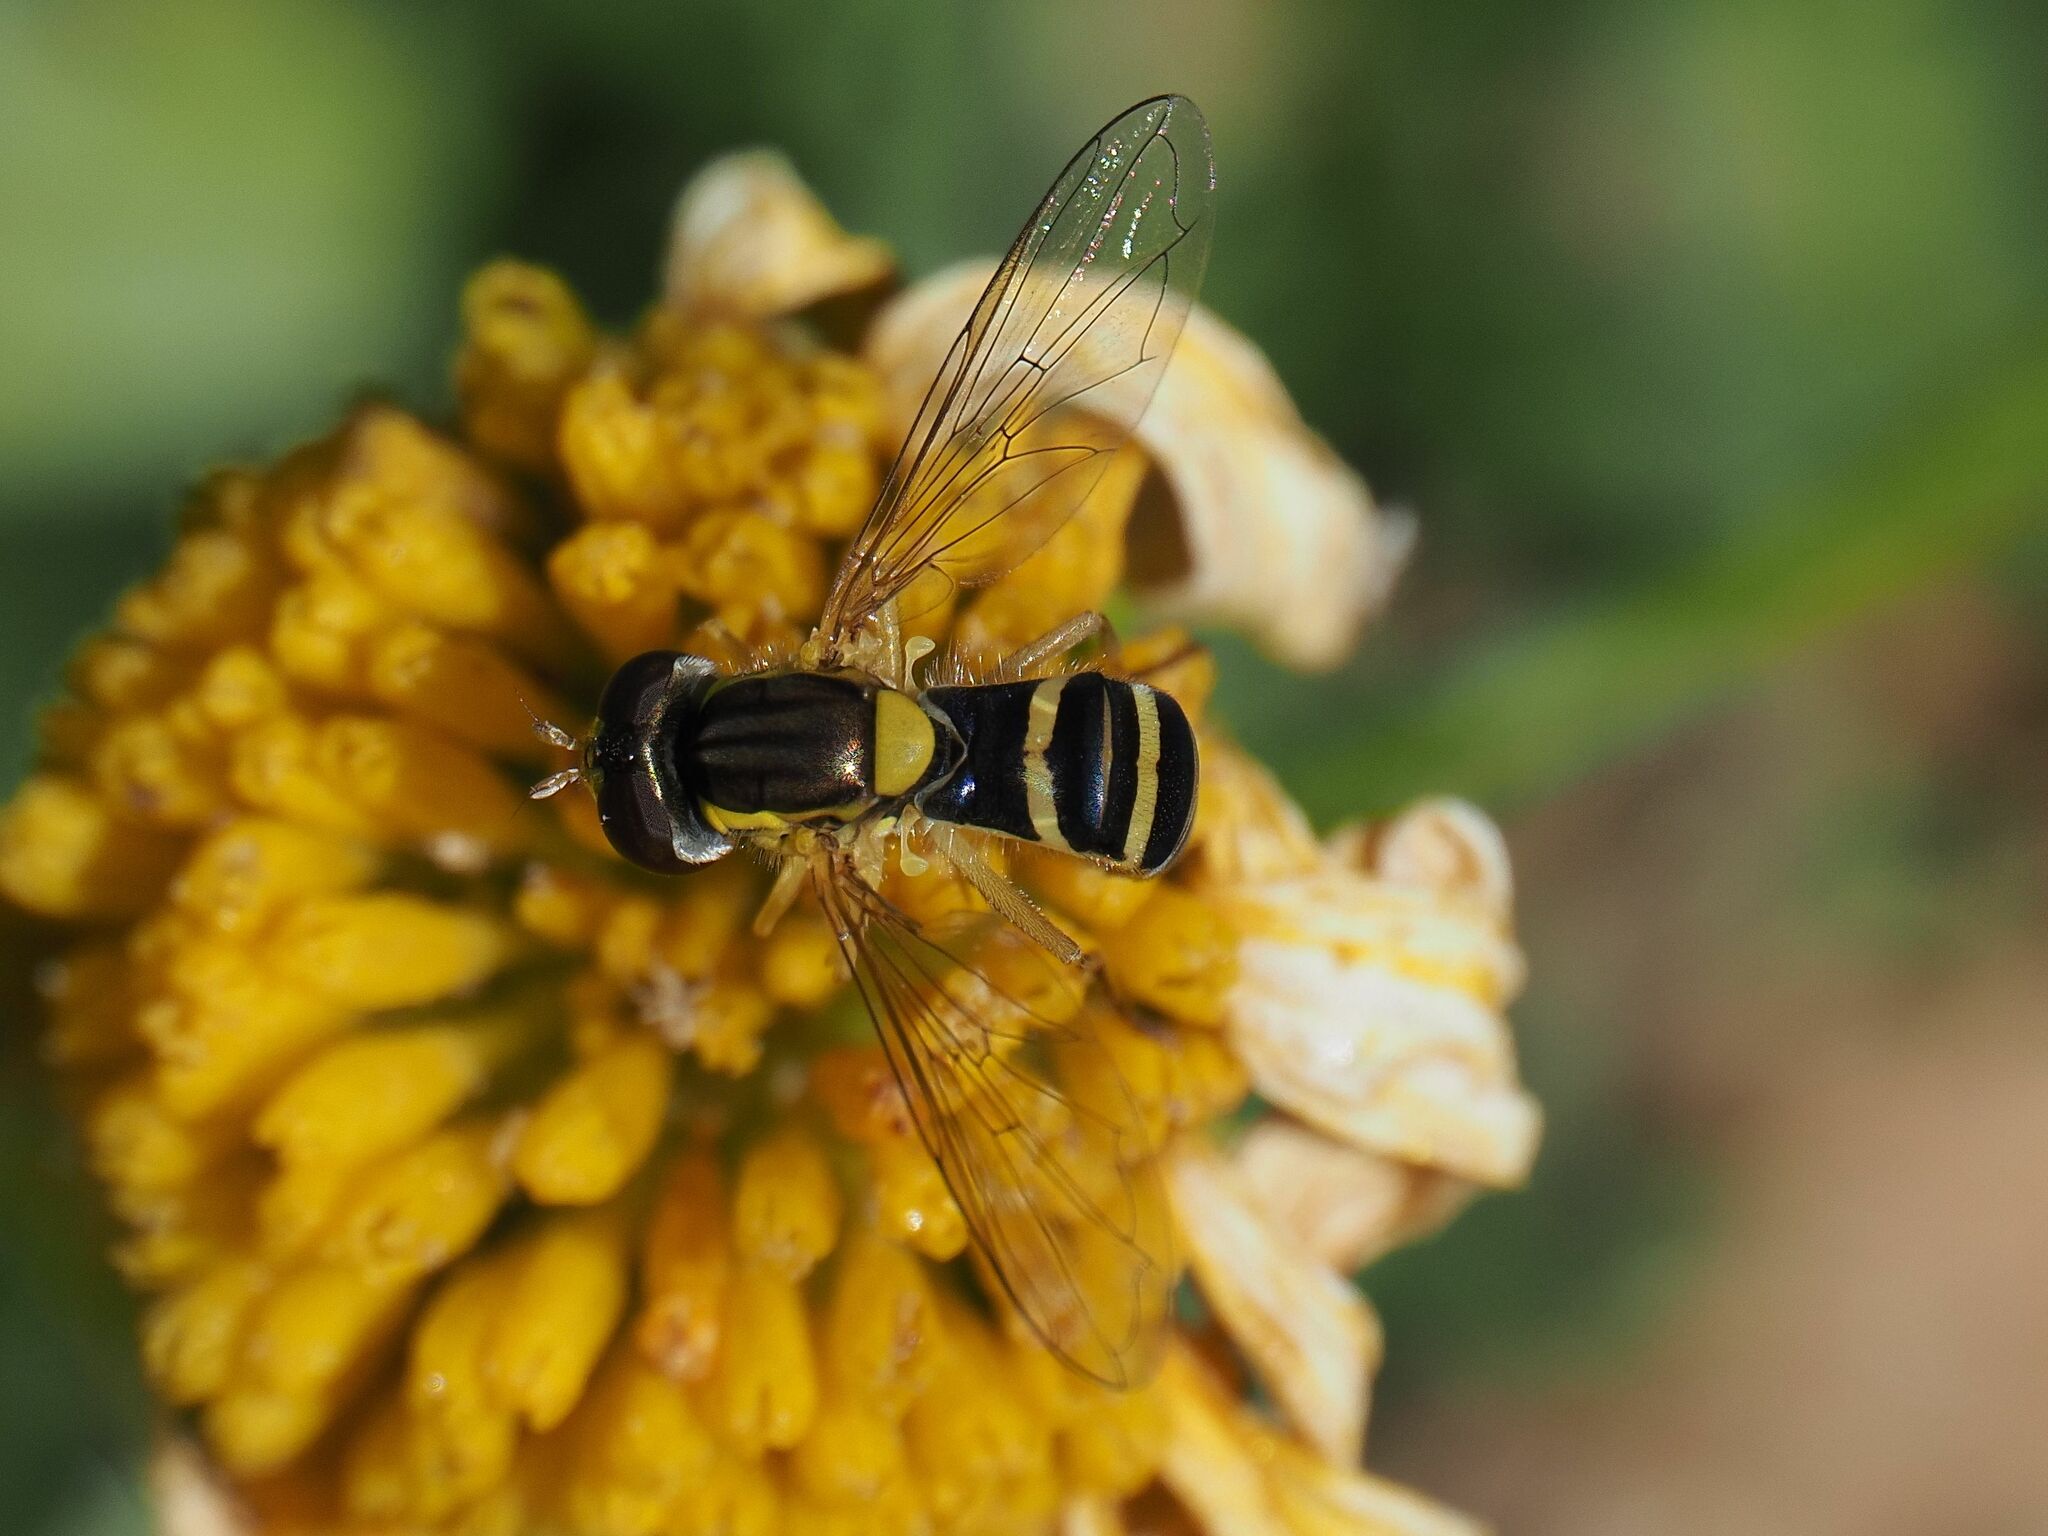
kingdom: Animalia
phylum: Arthropoda
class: Insecta
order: Diptera
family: Syrphidae
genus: Sphaerophoria
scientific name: Sphaerophoria
